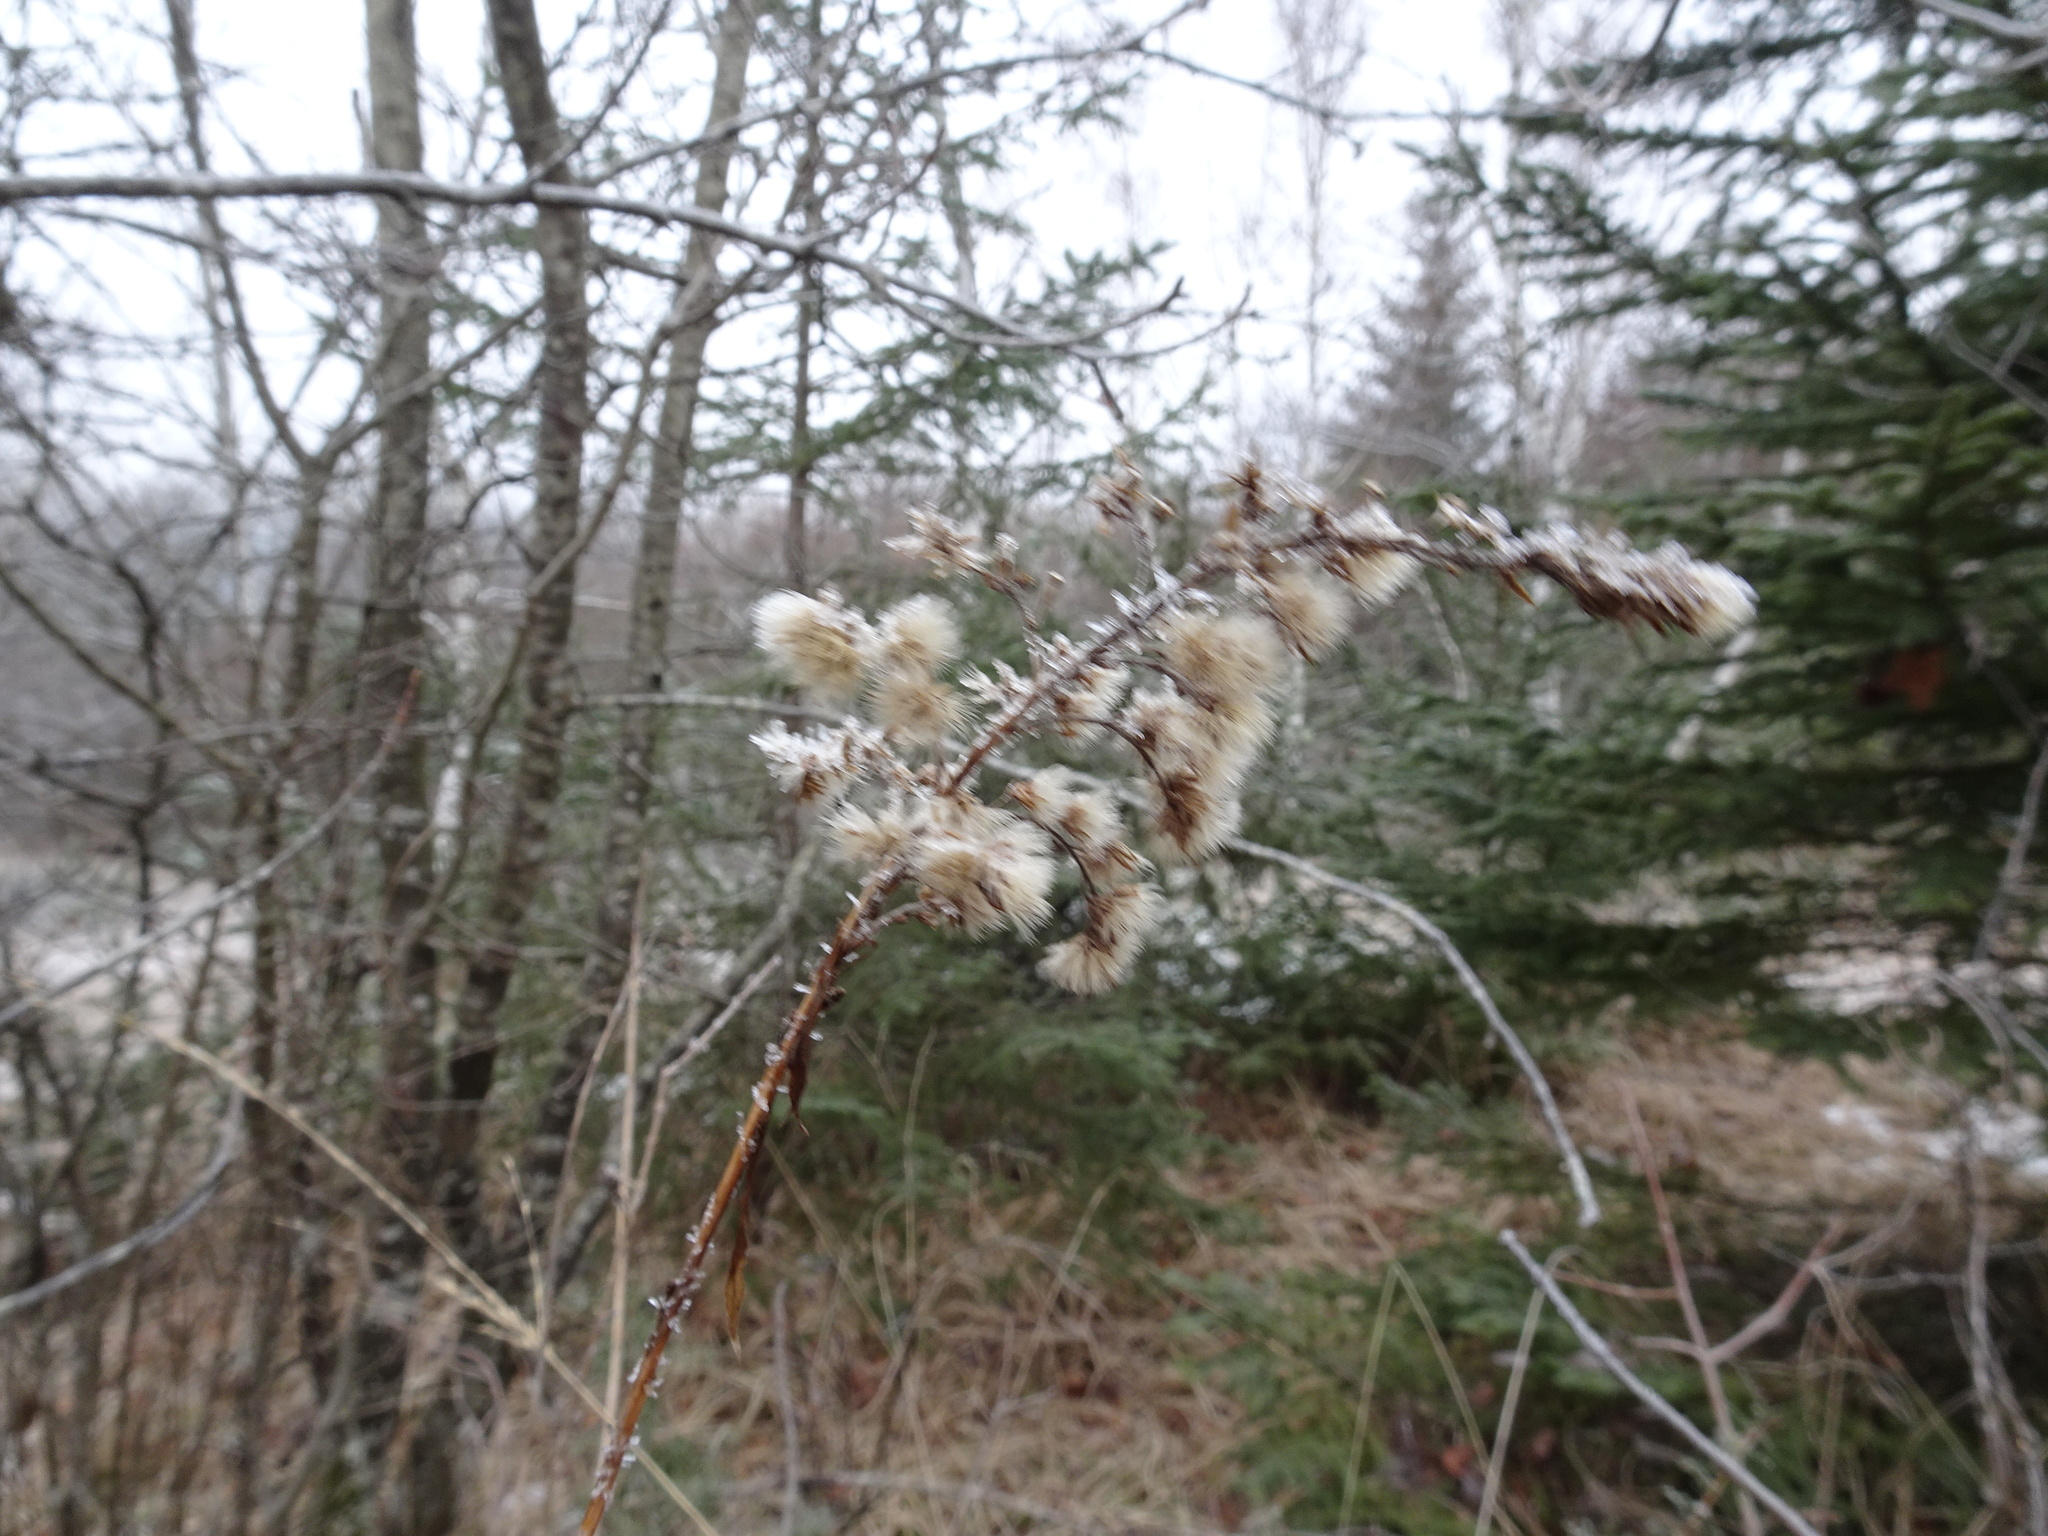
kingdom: Plantae
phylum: Tracheophyta
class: Magnoliopsida
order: Asterales
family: Asteraceae
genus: Solidago
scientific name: Solidago gigantea
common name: Giant goldenrod
